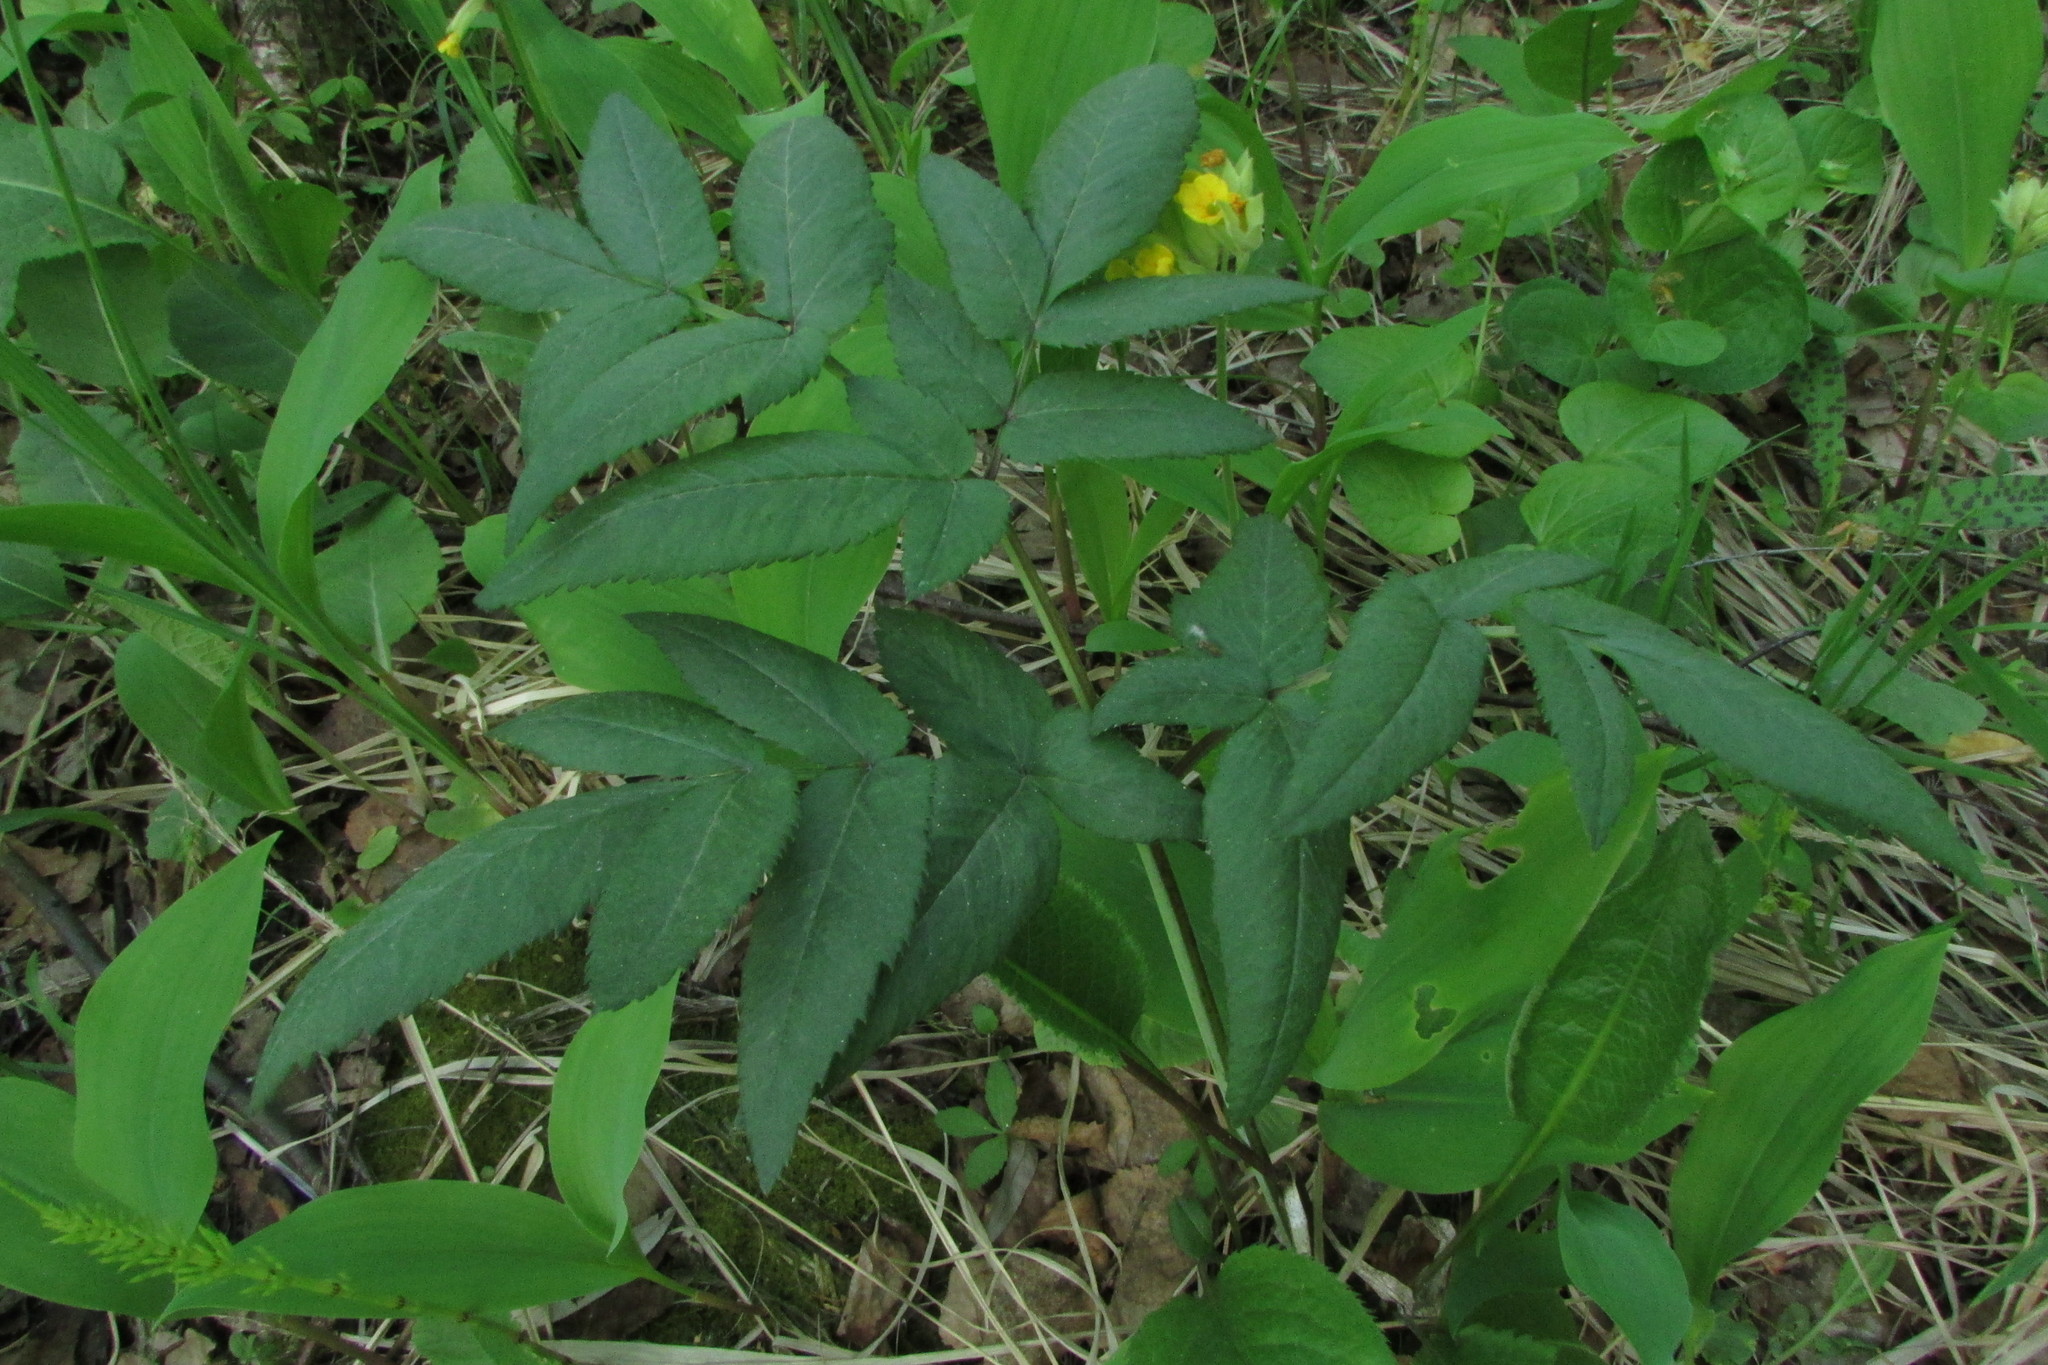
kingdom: Plantae
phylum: Tracheophyta
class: Magnoliopsida
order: Apiales
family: Apiaceae
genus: Angelica
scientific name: Angelica sylvestris
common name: Wild angelica
